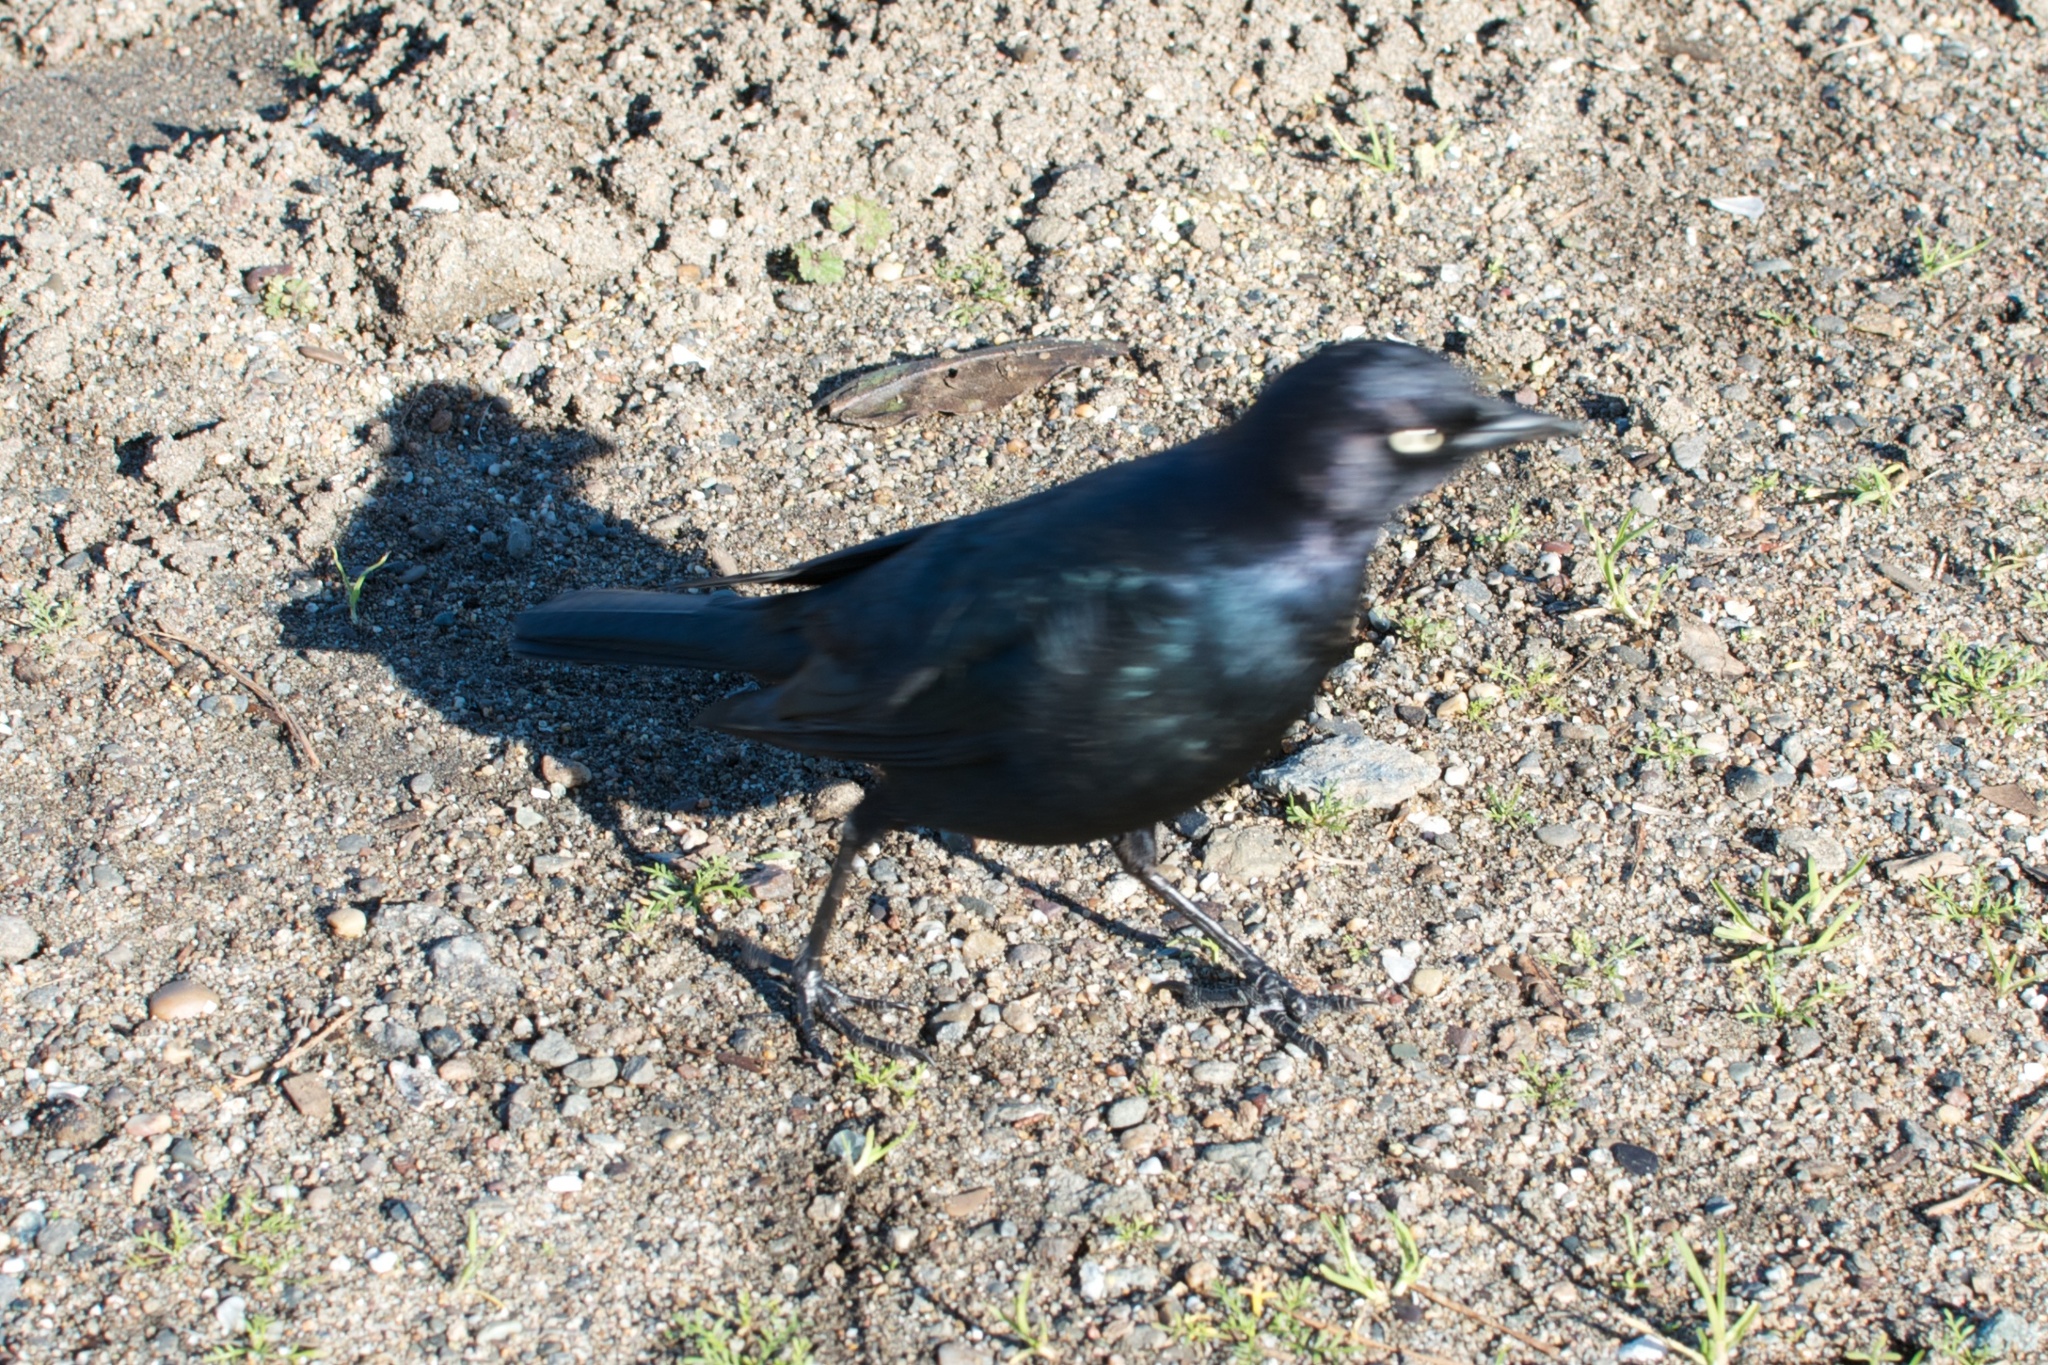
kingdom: Animalia
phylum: Chordata
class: Aves
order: Passeriformes
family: Icteridae
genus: Euphagus
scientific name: Euphagus cyanocephalus
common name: Brewer's blackbird
